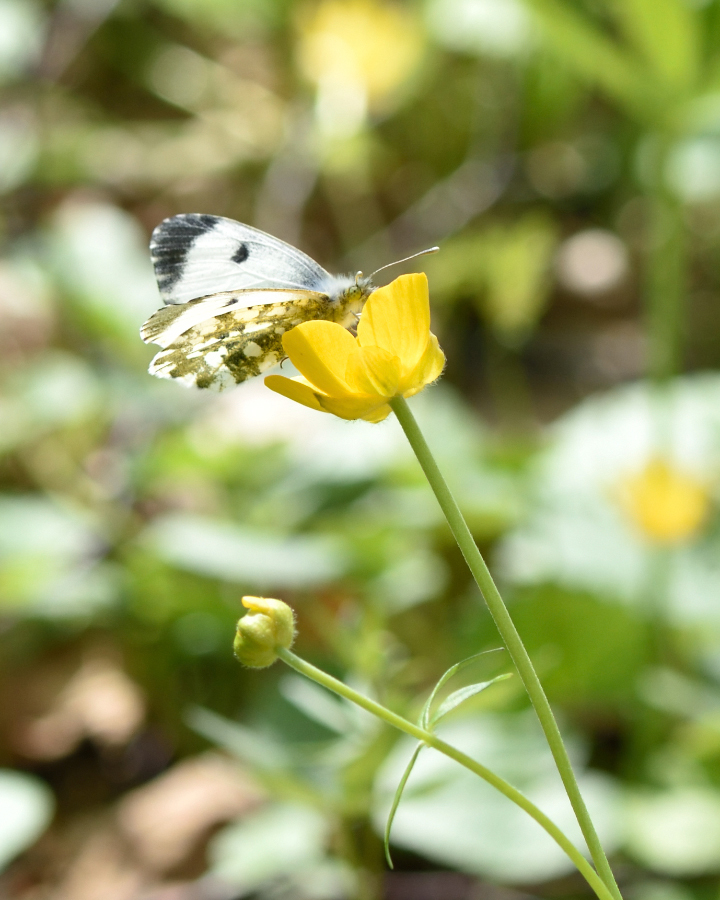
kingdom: Animalia
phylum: Arthropoda
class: Insecta
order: Lepidoptera
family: Pieridae
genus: Anthocharis
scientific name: Anthocharis cardamines
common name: Orange-tip
